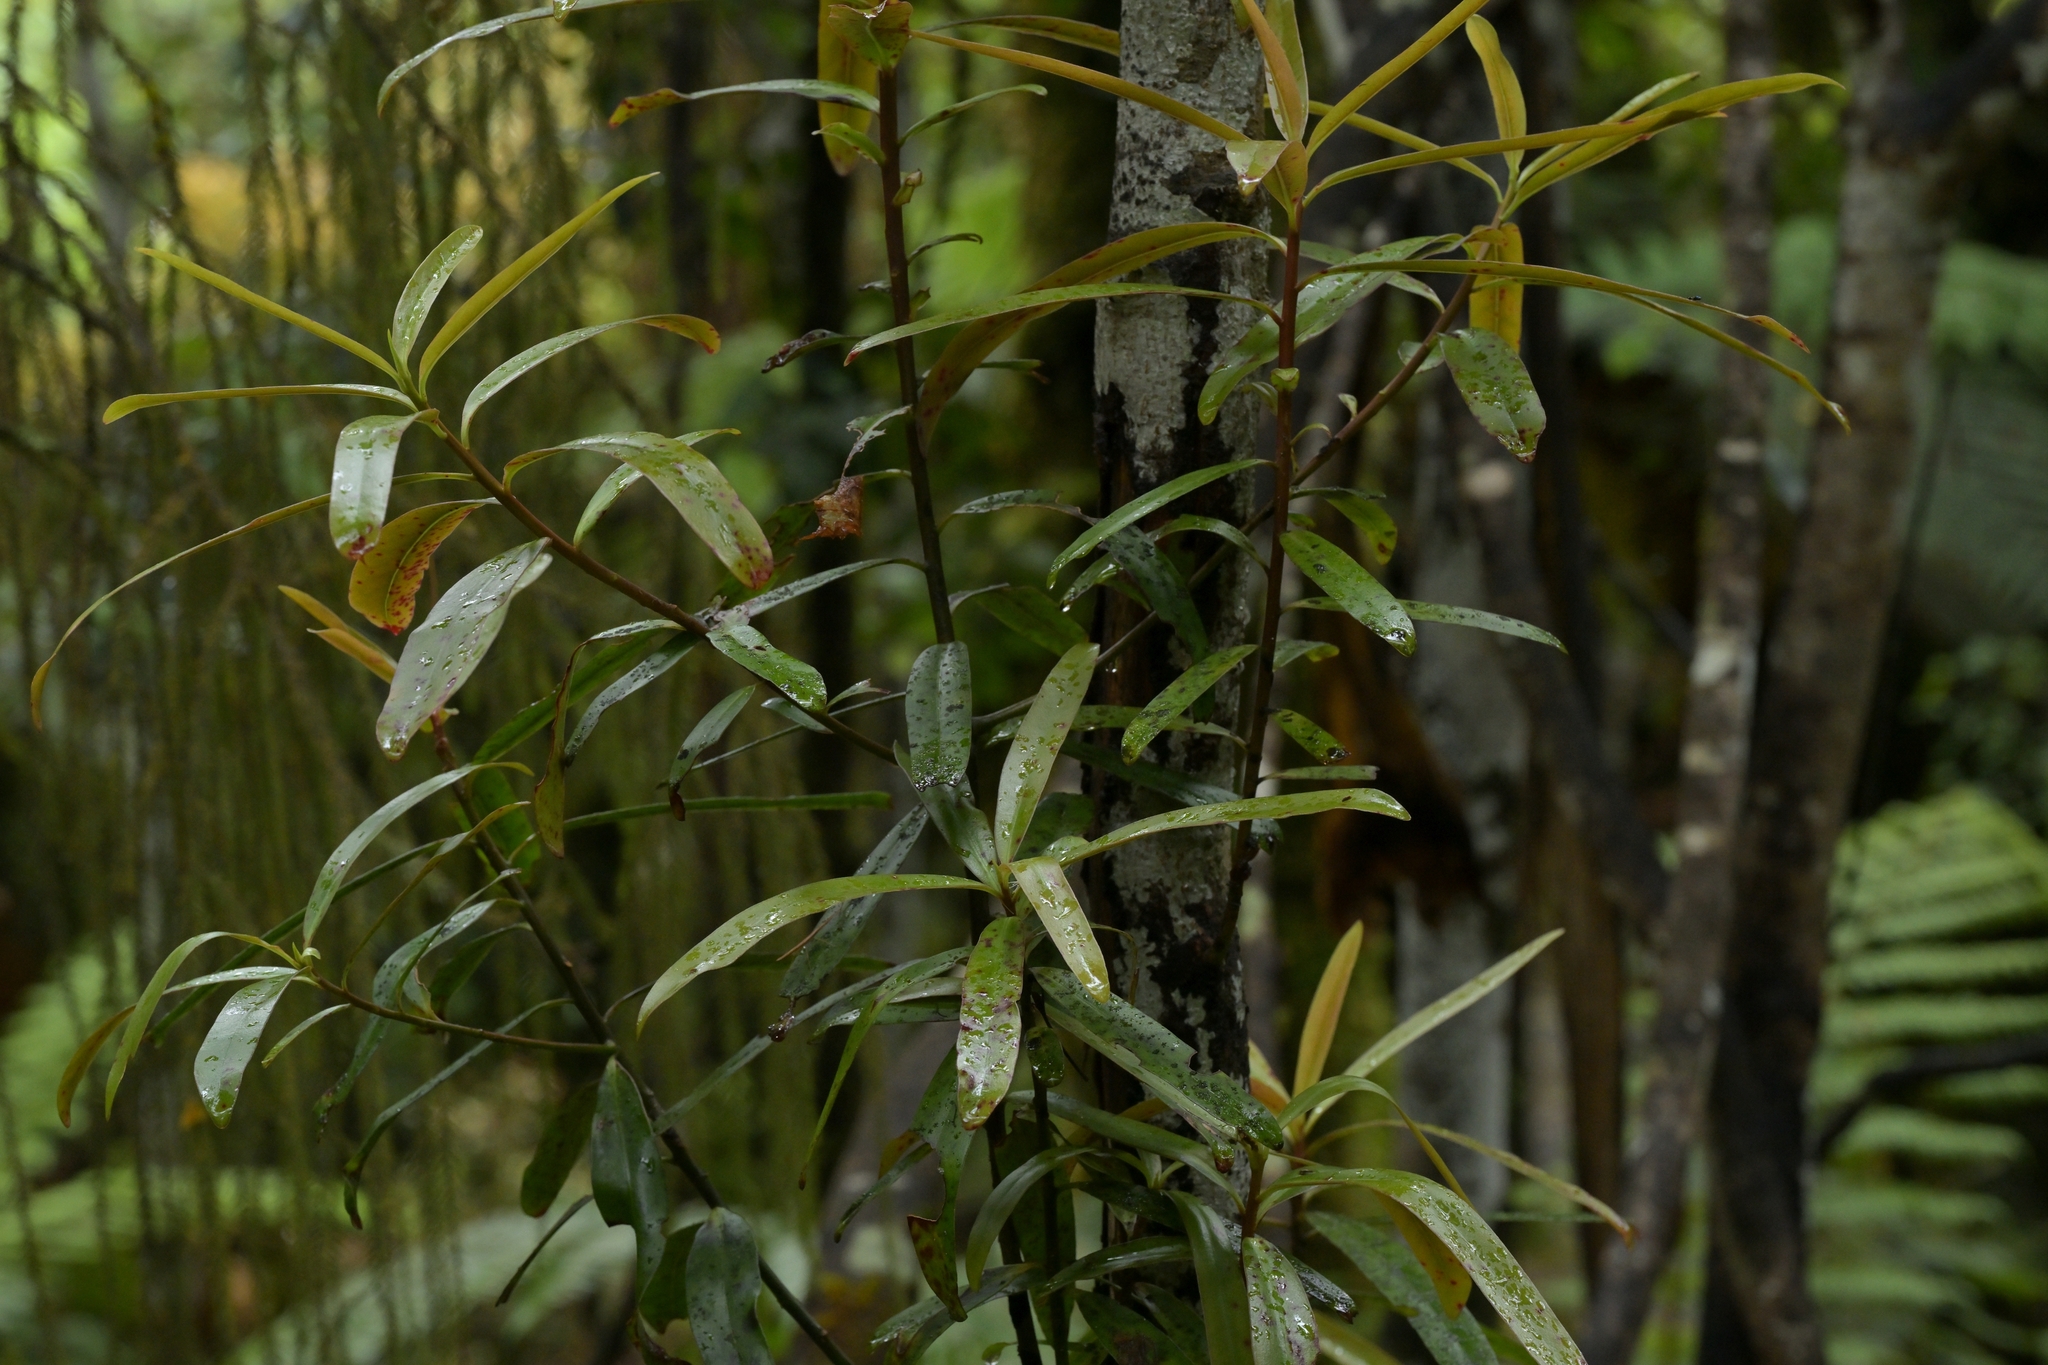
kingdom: Plantae
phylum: Tracheophyta
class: Magnoliopsida
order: Ericales
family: Primulaceae
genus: Myrsine
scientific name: Myrsine salicina
